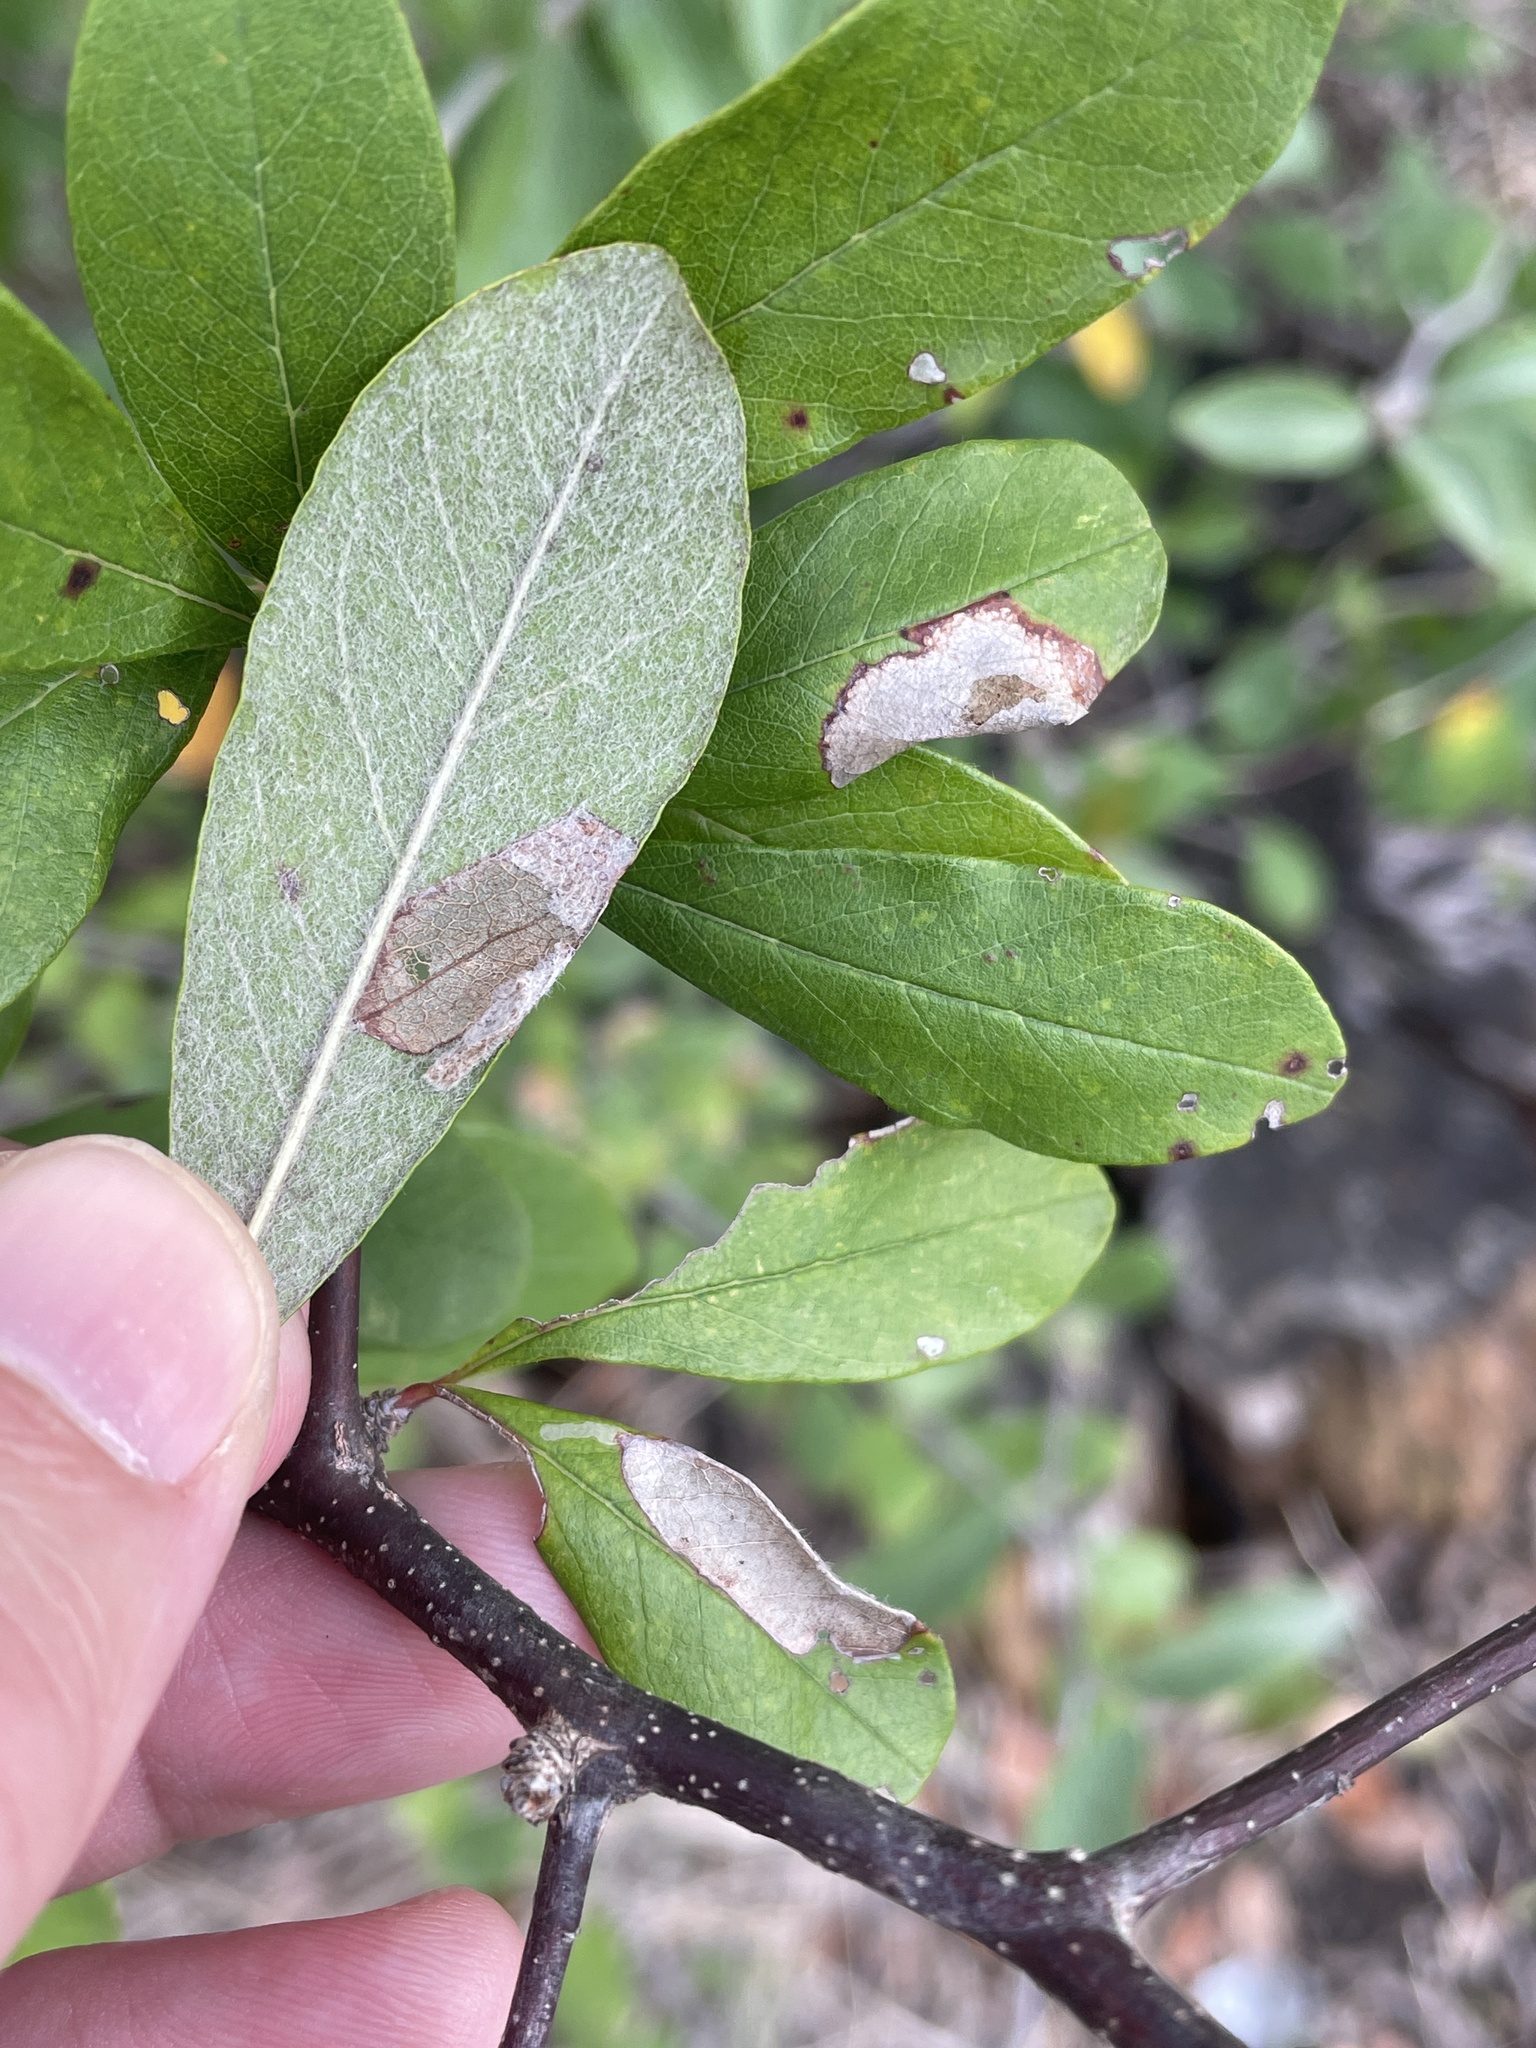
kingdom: Animalia
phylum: Arthropoda
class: Insecta
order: Lepidoptera
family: Gracillariidae
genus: Parectopa
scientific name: Parectopa bumeliella
